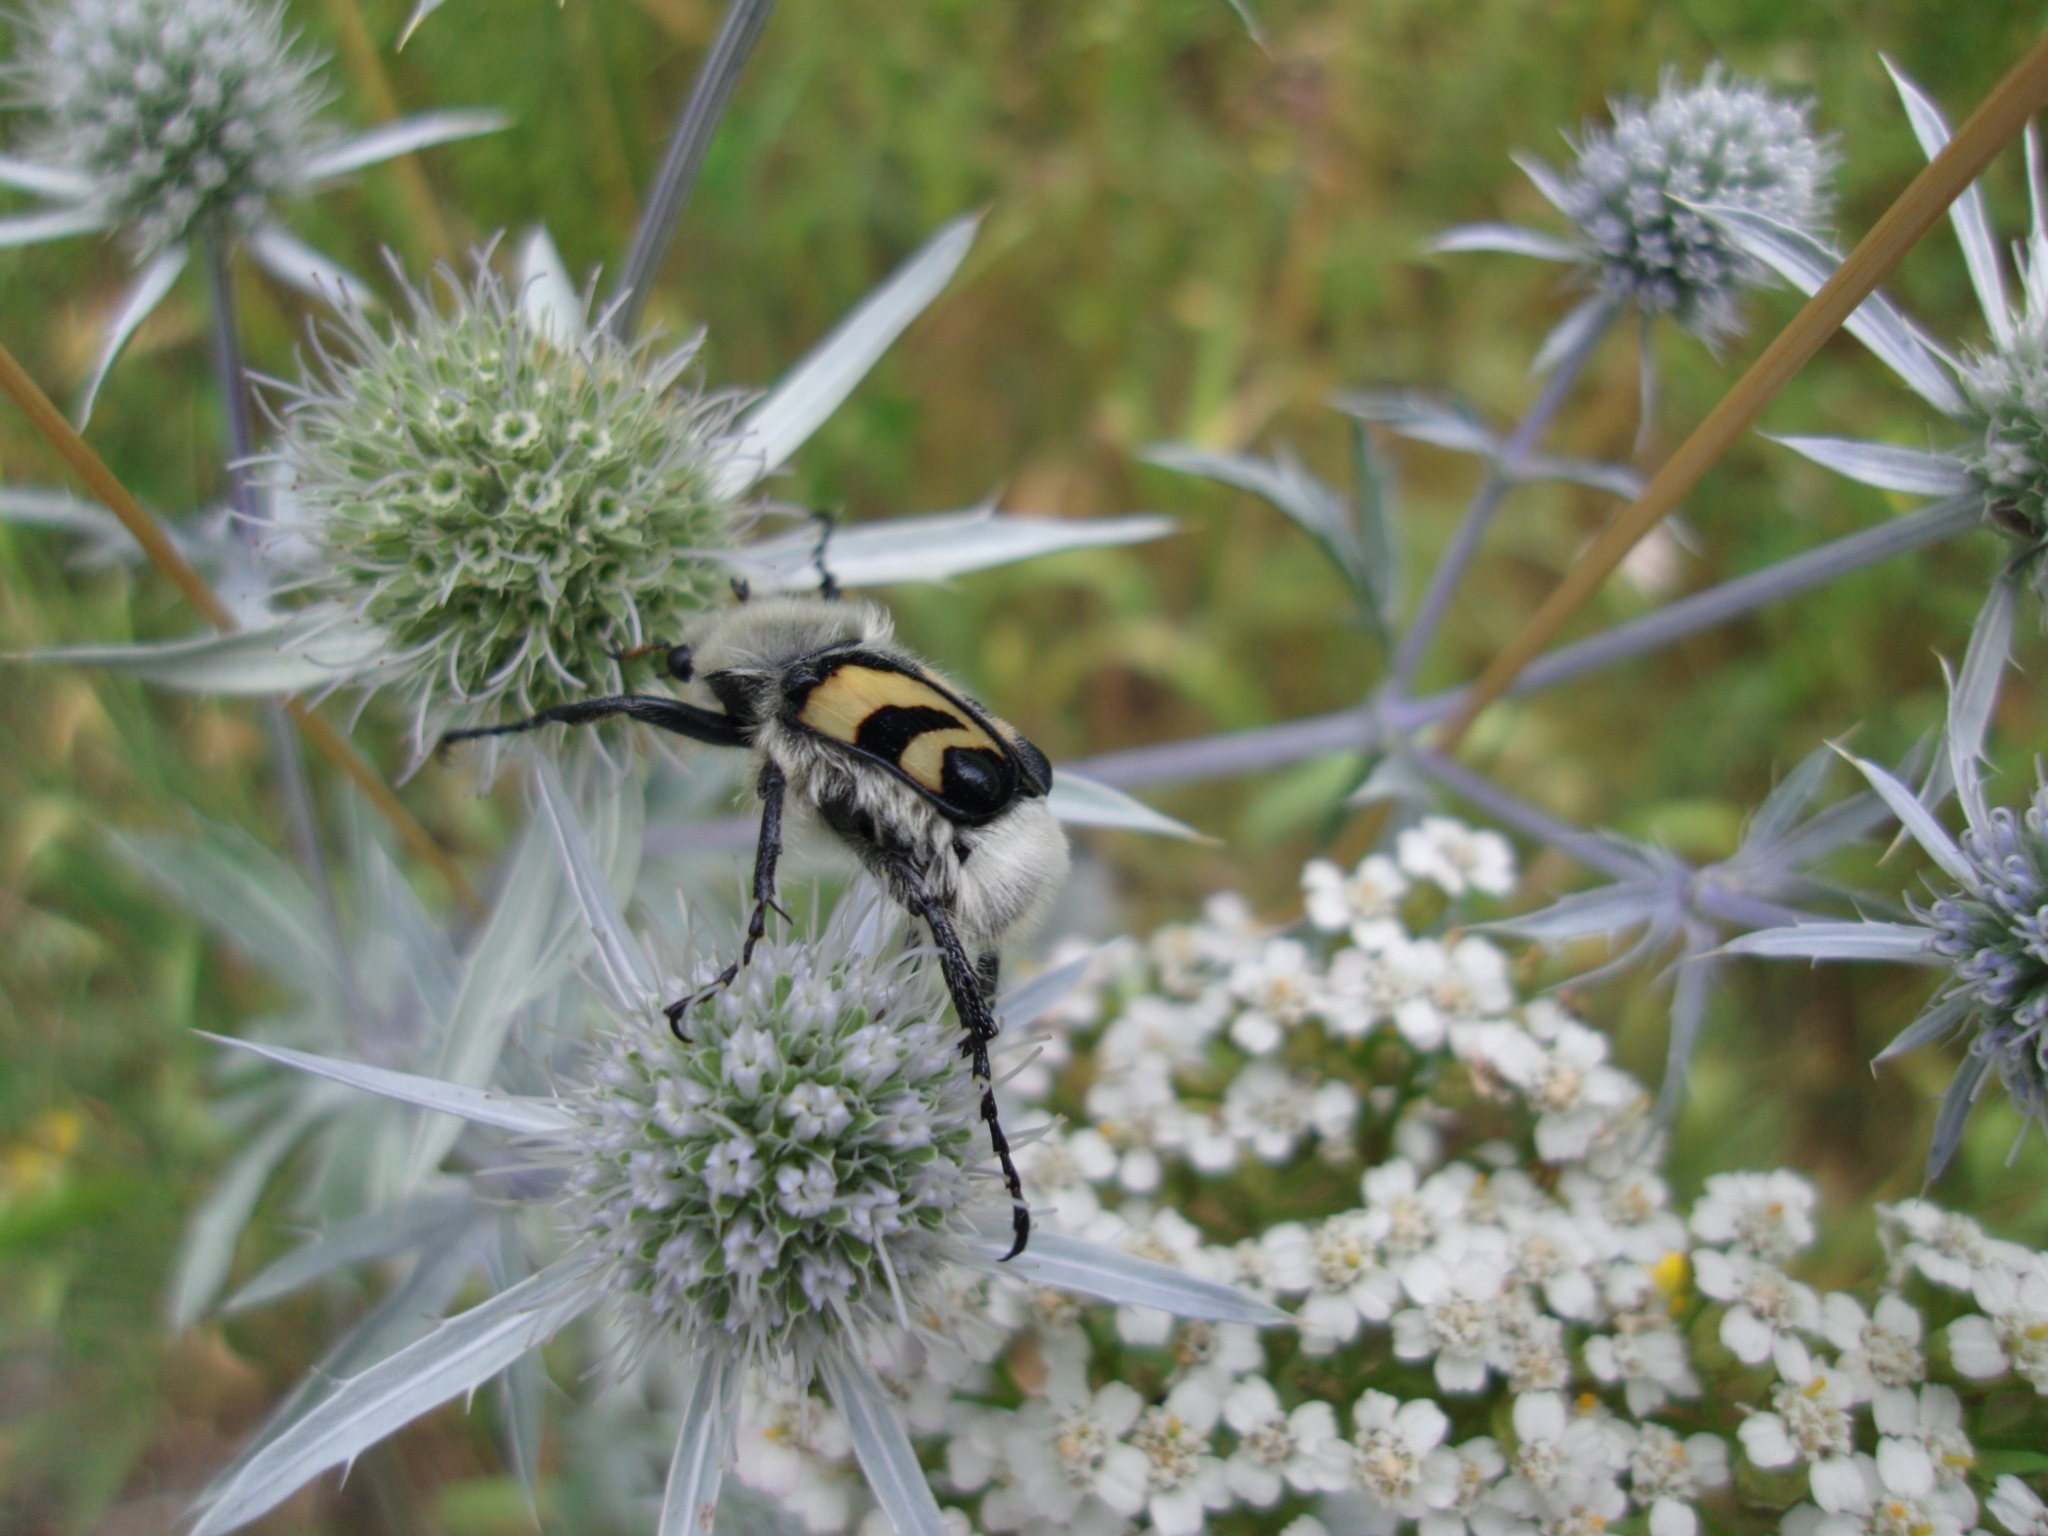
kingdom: Animalia
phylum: Arthropoda
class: Insecta
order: Coleoptera
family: Scarabaeidae
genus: Trichius
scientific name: Trichius fasciatus
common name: Bee beetle
